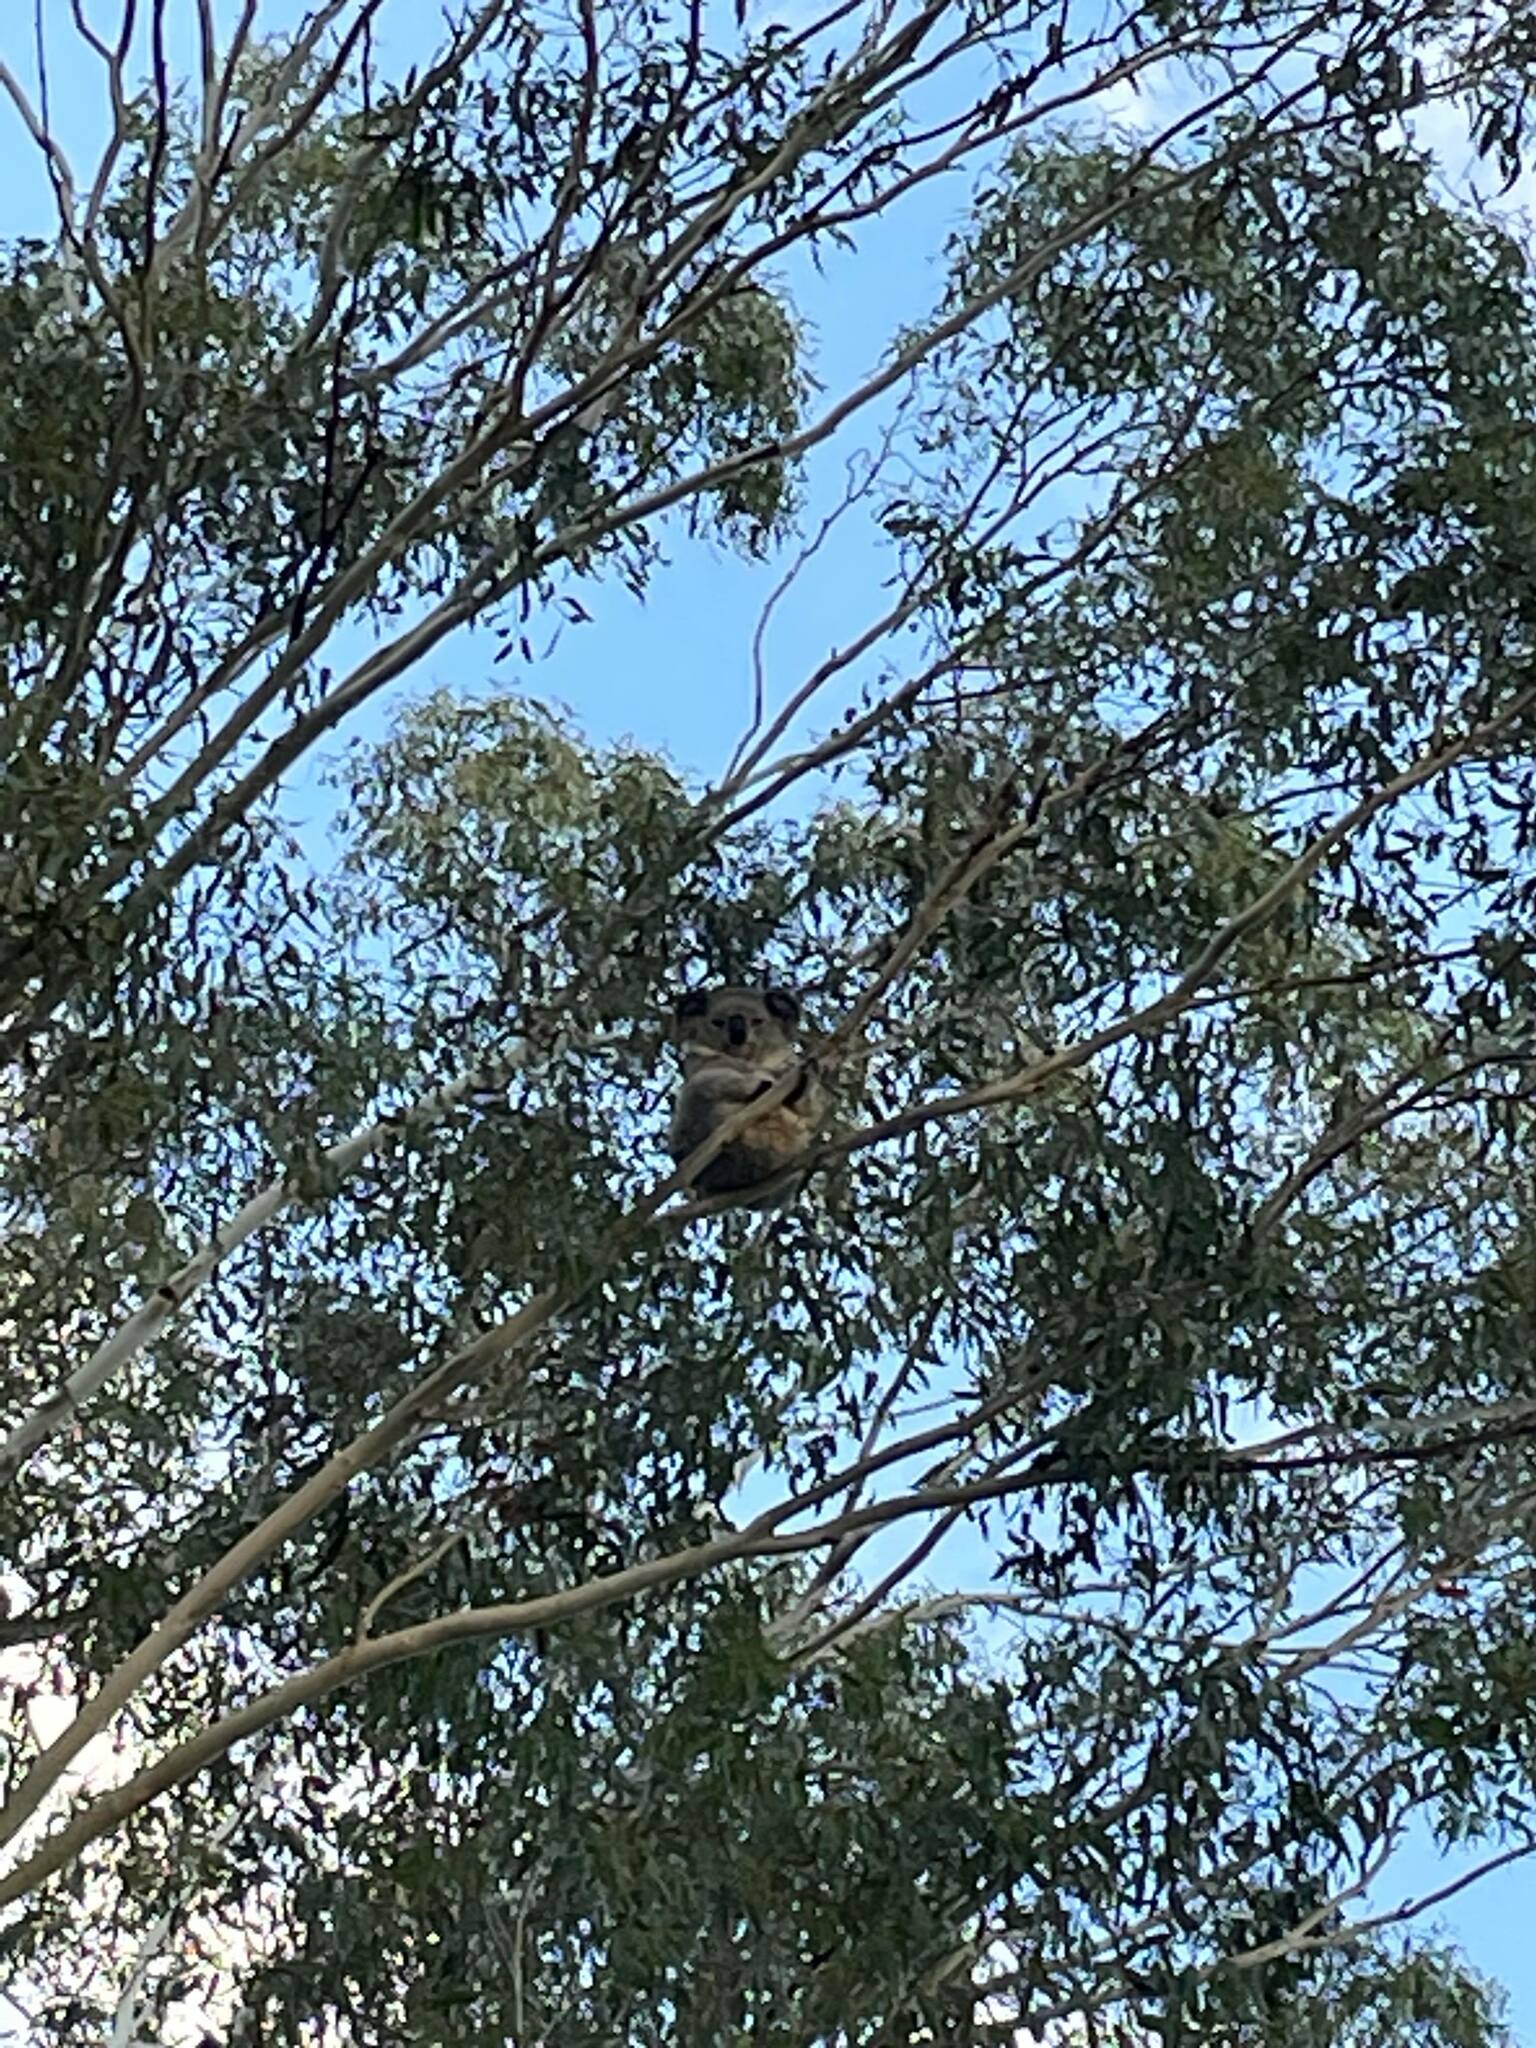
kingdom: Animalia
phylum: Chordata
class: Mammalia
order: Diprotodontia
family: Phascolarctidae
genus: Phascolarctos
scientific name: Phascolarctos cinereus
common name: Koala
